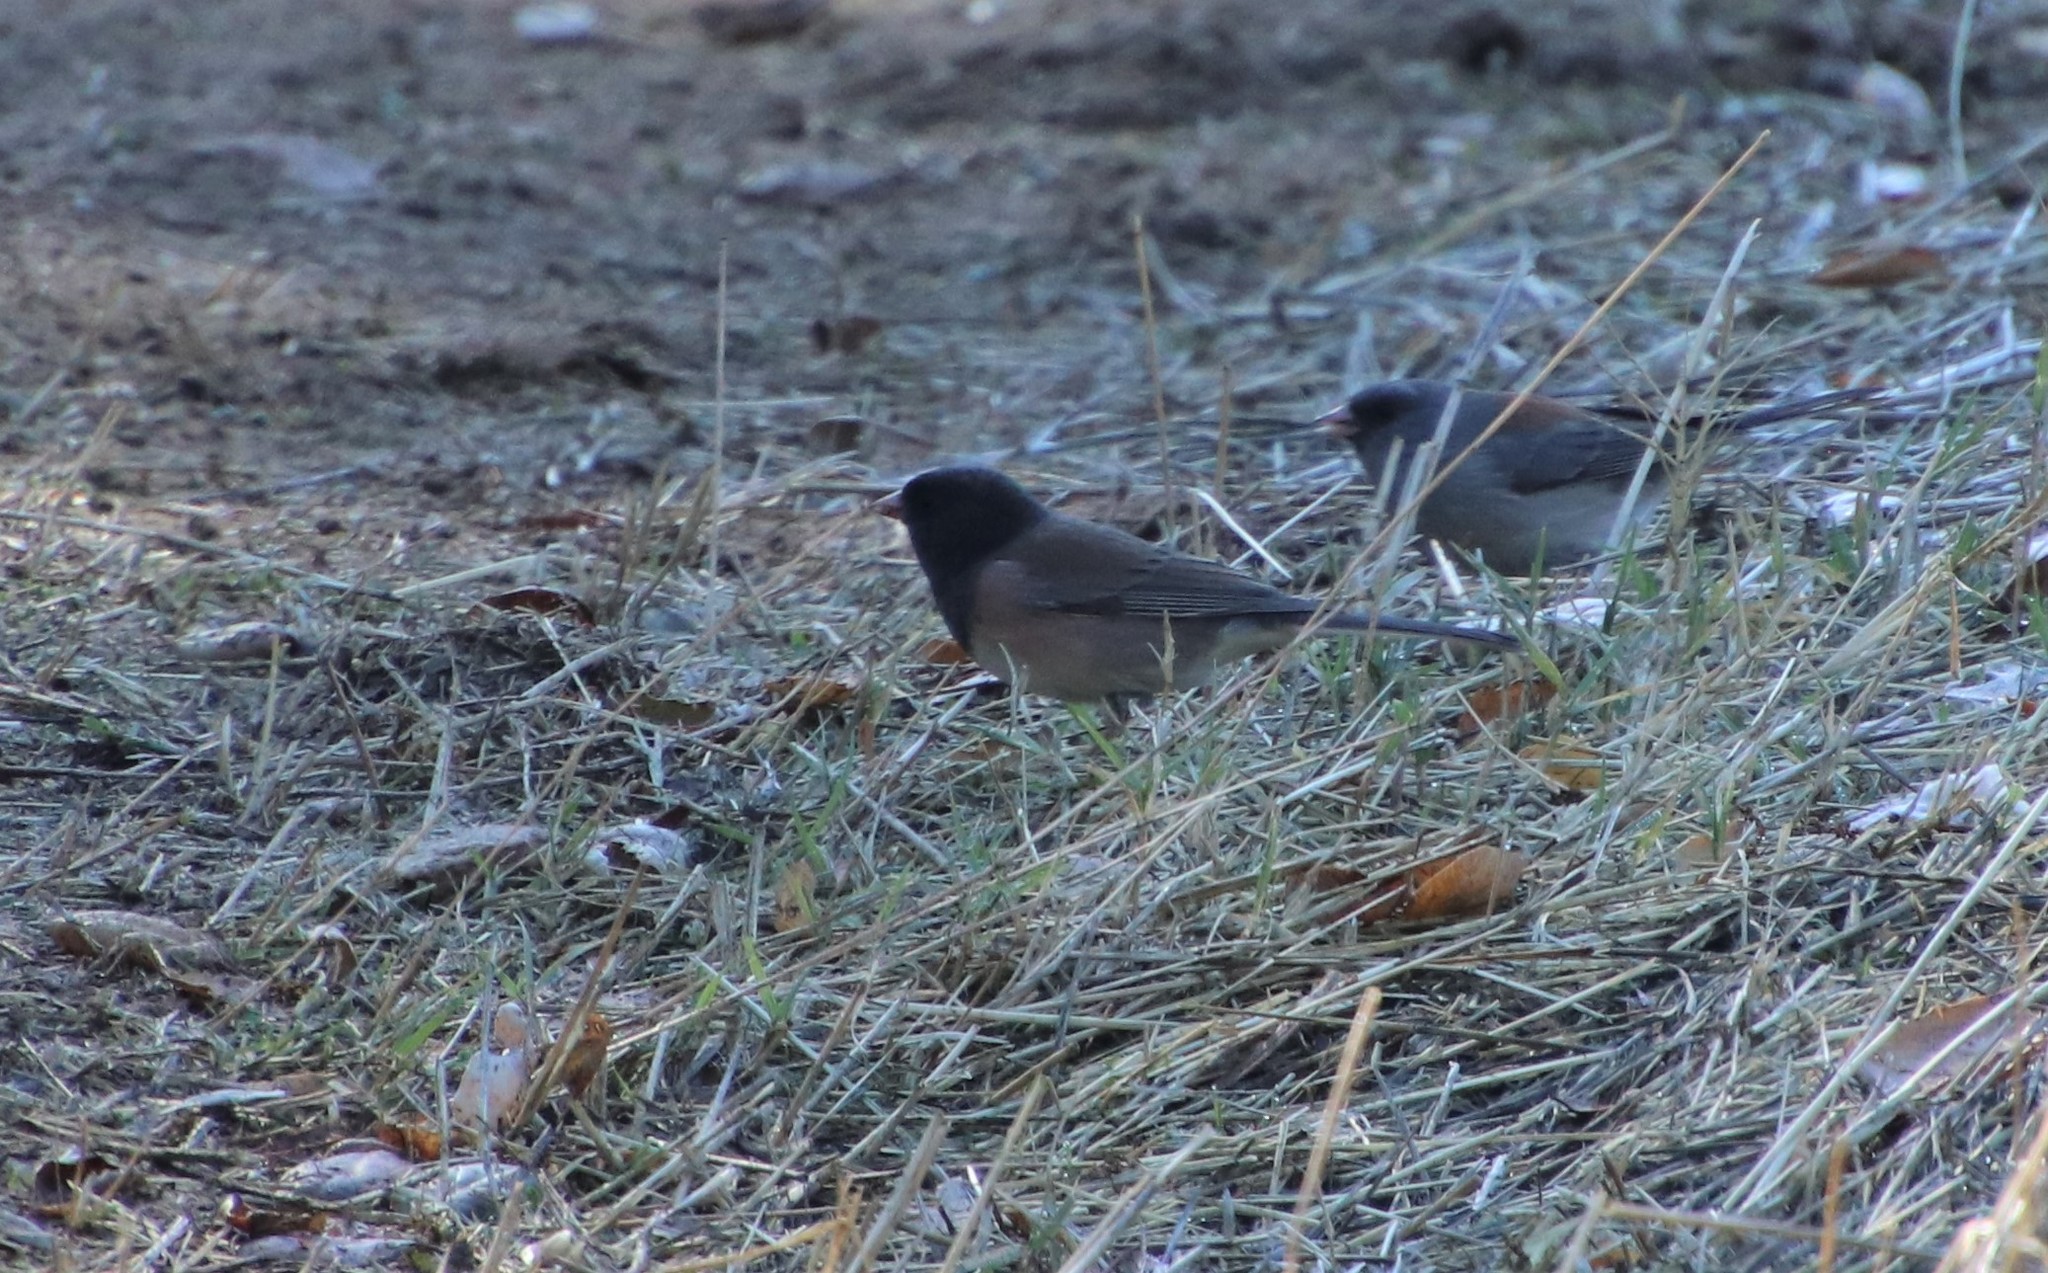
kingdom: Animalia
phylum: Chordata
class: Aves
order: Passeriformes
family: Passerellidae
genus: Junco
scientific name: Junco hyemalis
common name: Dark-eyed junco
